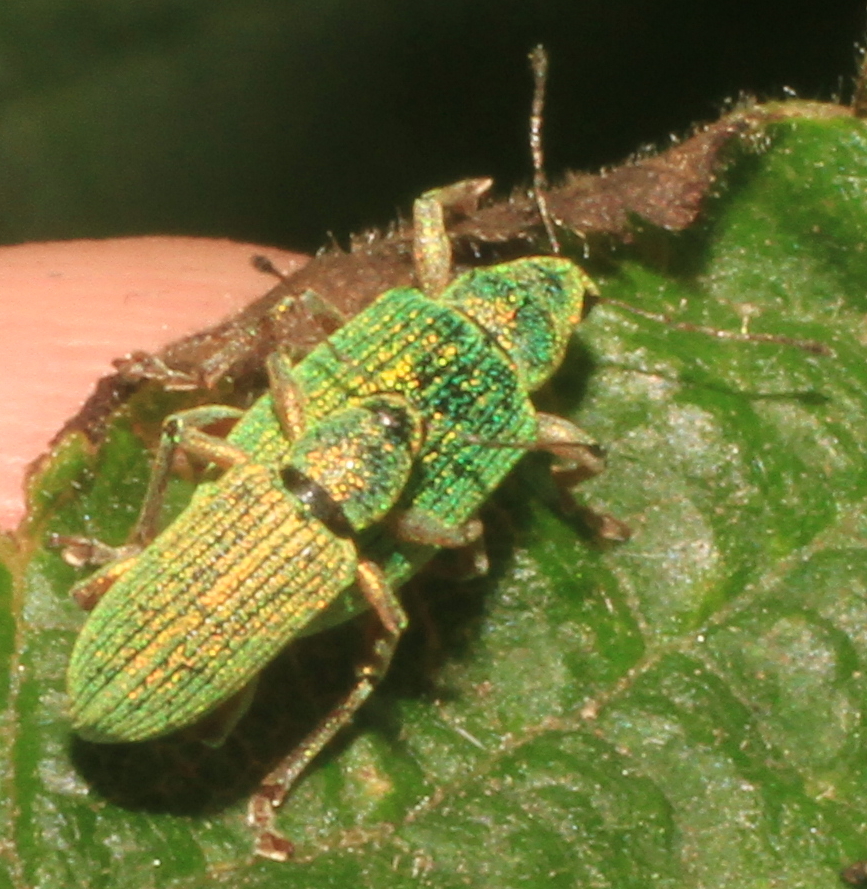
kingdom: Animalia
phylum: Arthropoda
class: Insecta
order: Coleoptera
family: Curculionidae
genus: Polydrusus
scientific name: Polydrusus formosus
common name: Weevil
